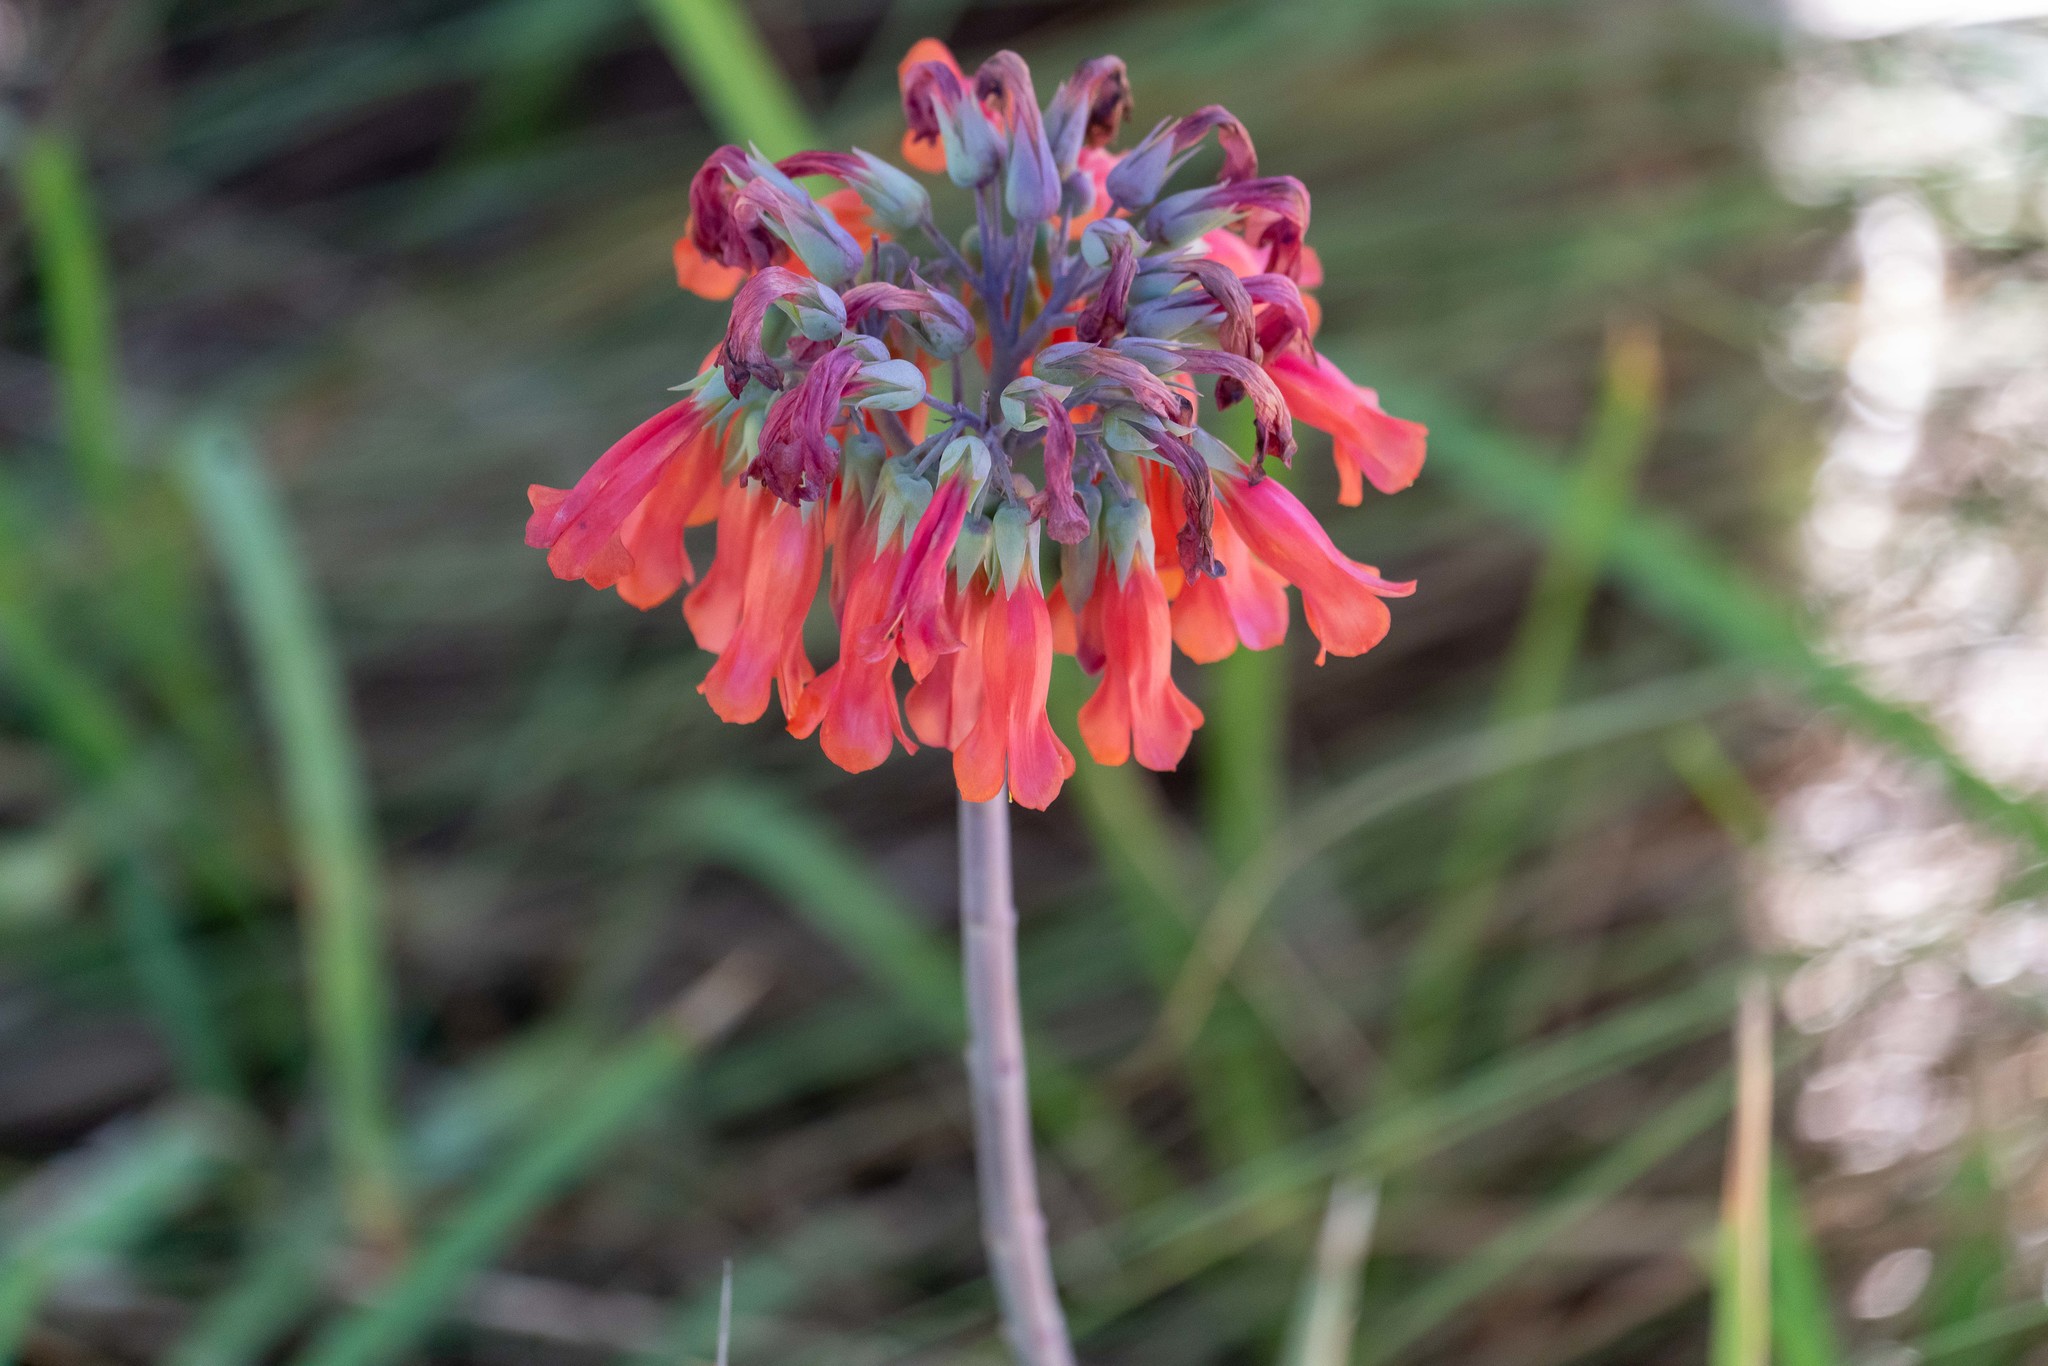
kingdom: Chromista
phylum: Ciliophora
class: Gymnostomatea
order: Spathidiida
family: Spathidiidae
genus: Bryophyllum
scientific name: Bryophyllum
